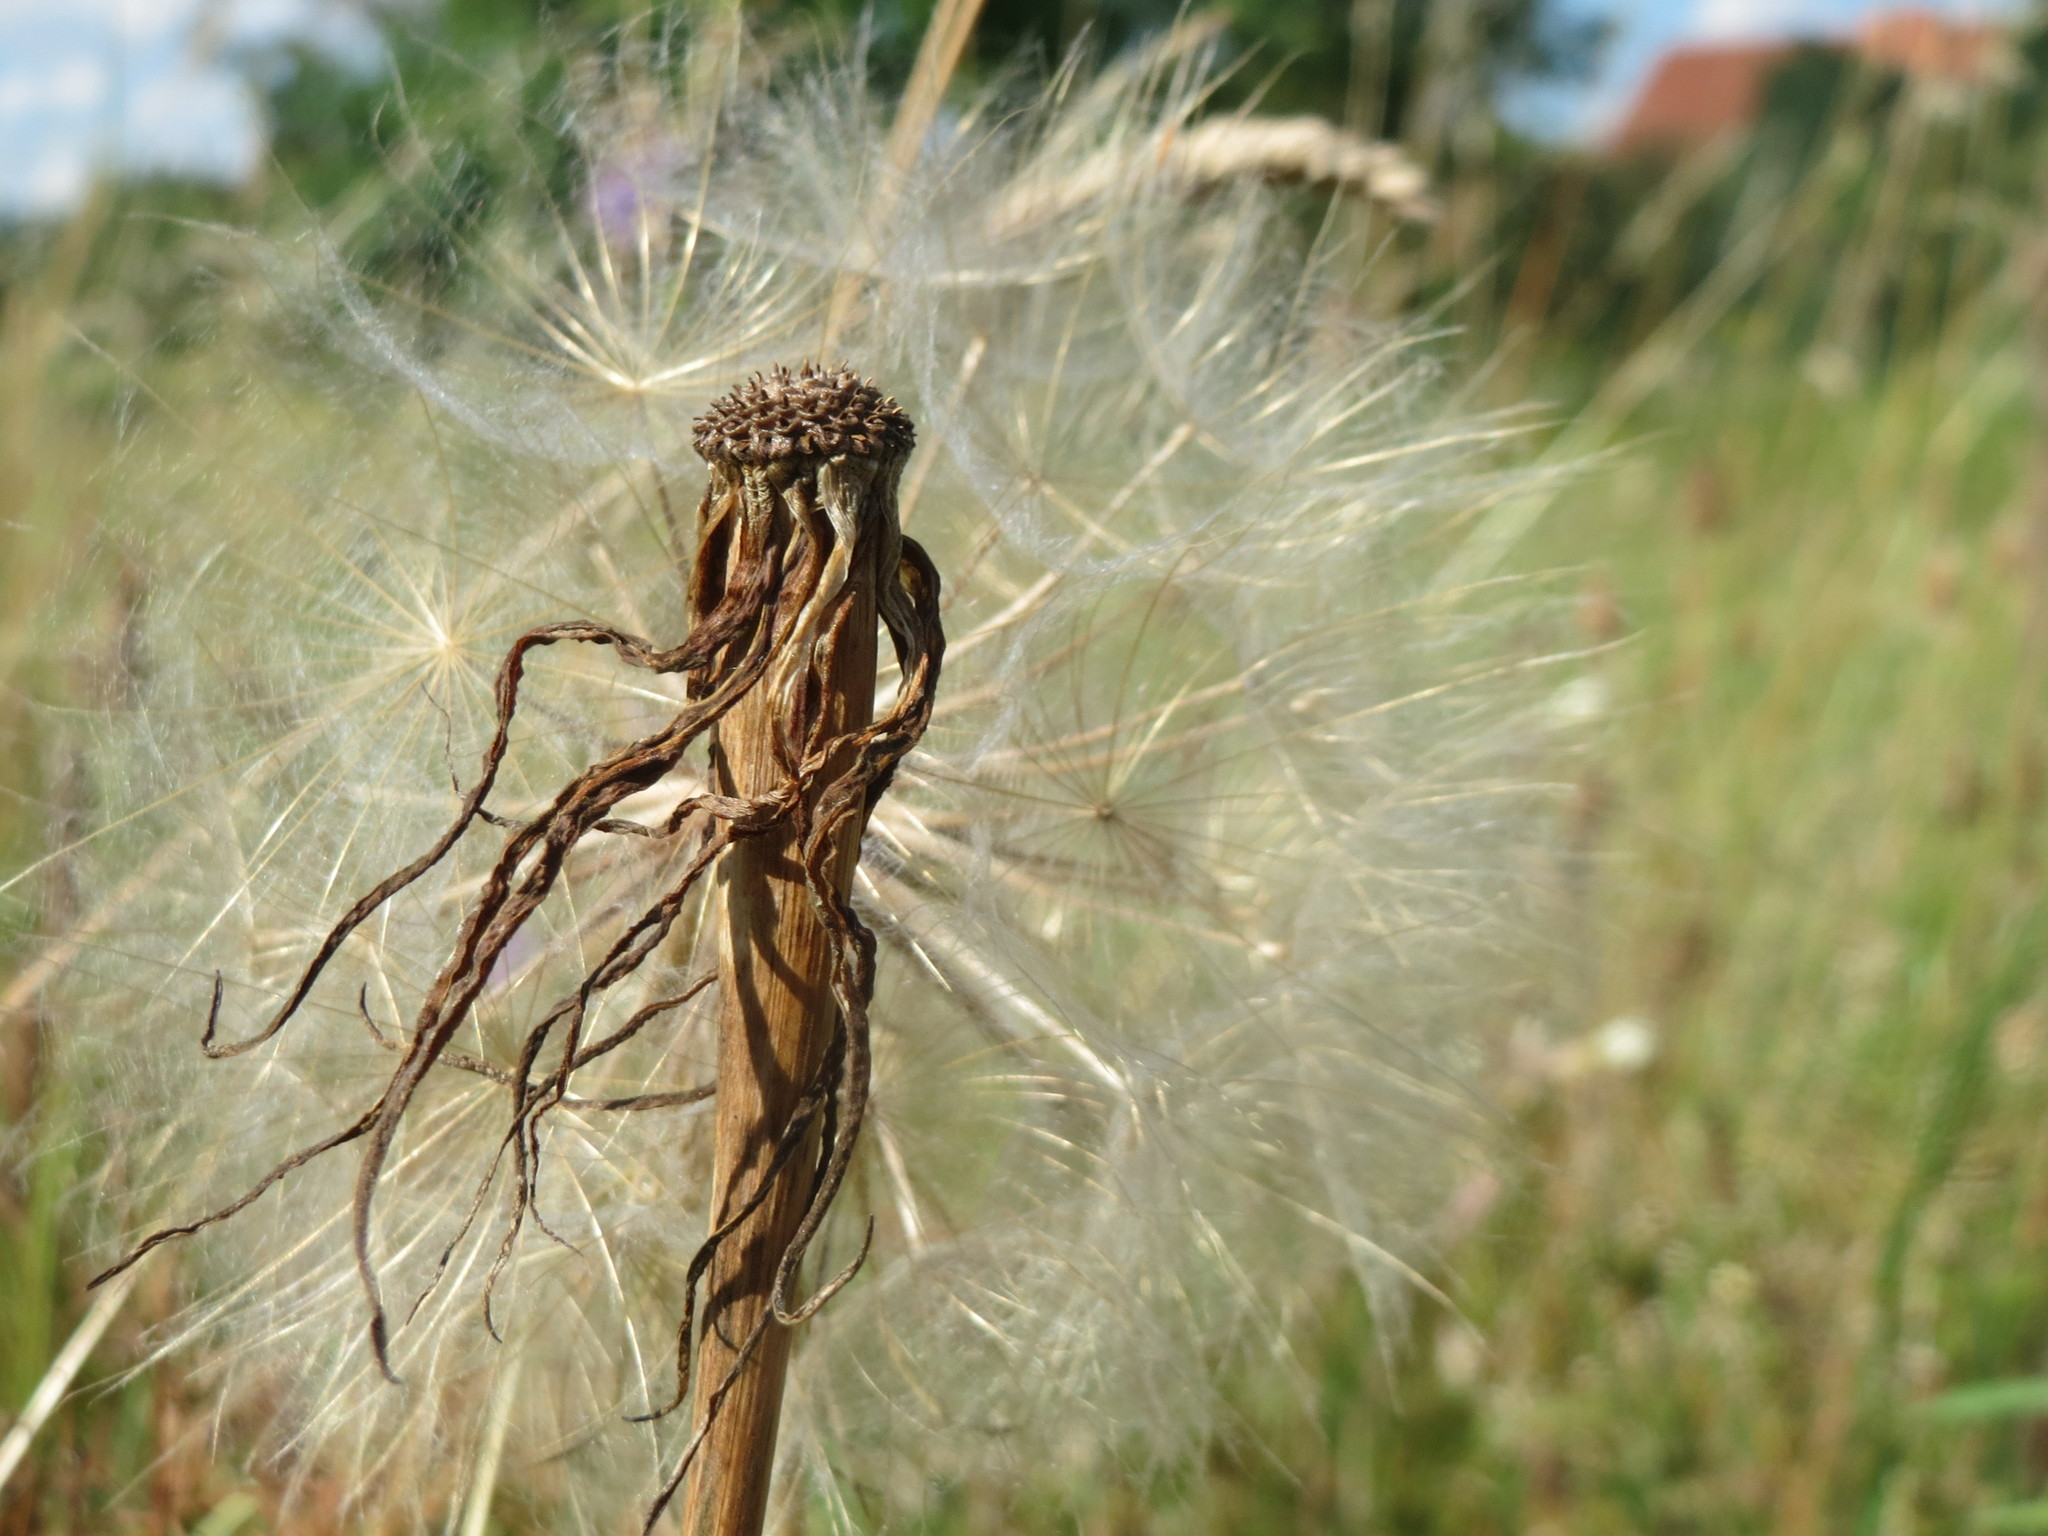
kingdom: Plantae
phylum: Tracheophyta
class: Magnoliopsida
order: Asterales
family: Asteraceae
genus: Tragopogon
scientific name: Tragopogon dubius
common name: Yellow salsify
